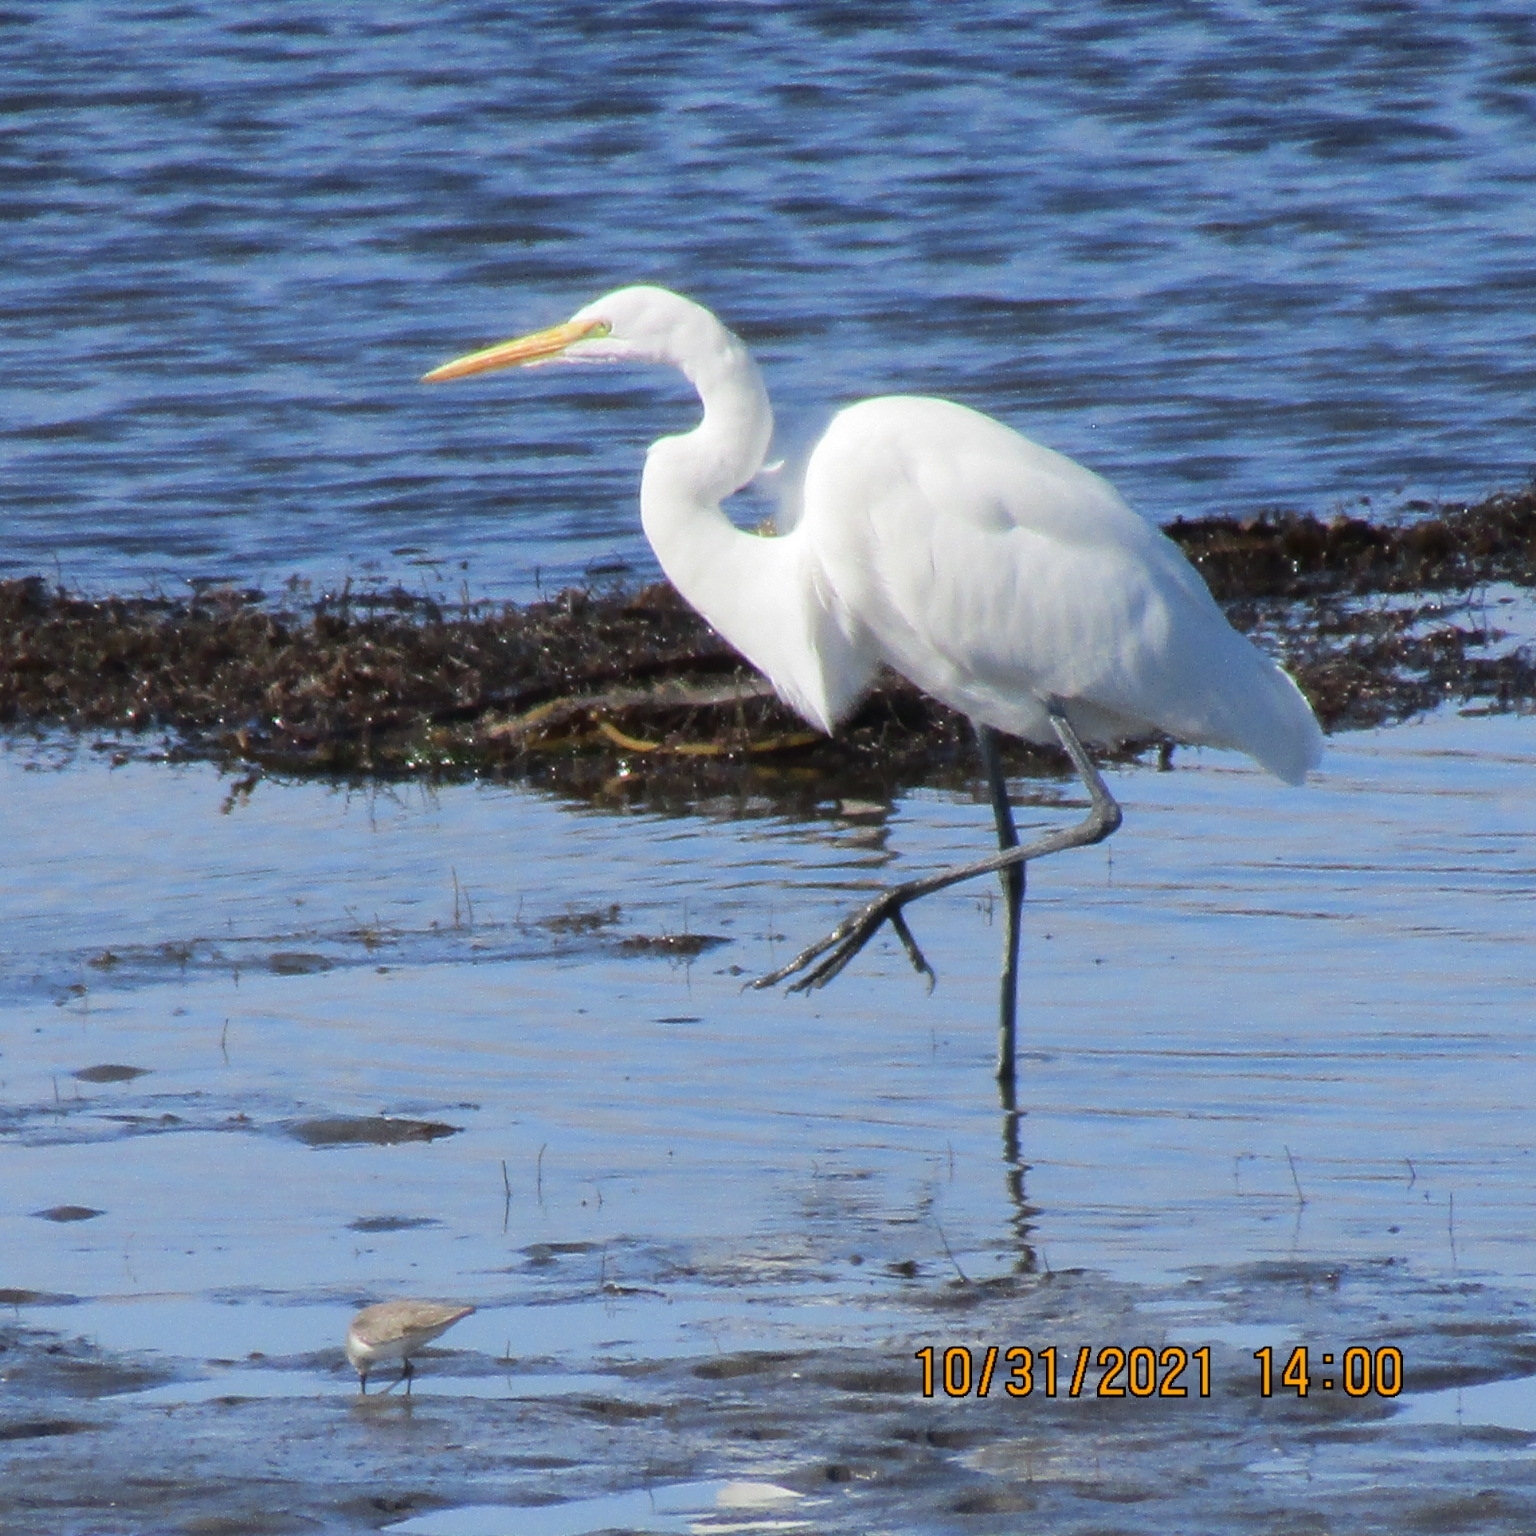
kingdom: Animalia
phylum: Chordata
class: Aves
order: Pelecaniformes
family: Ardeidae
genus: Ardea
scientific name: Ardea alba
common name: Great egret
